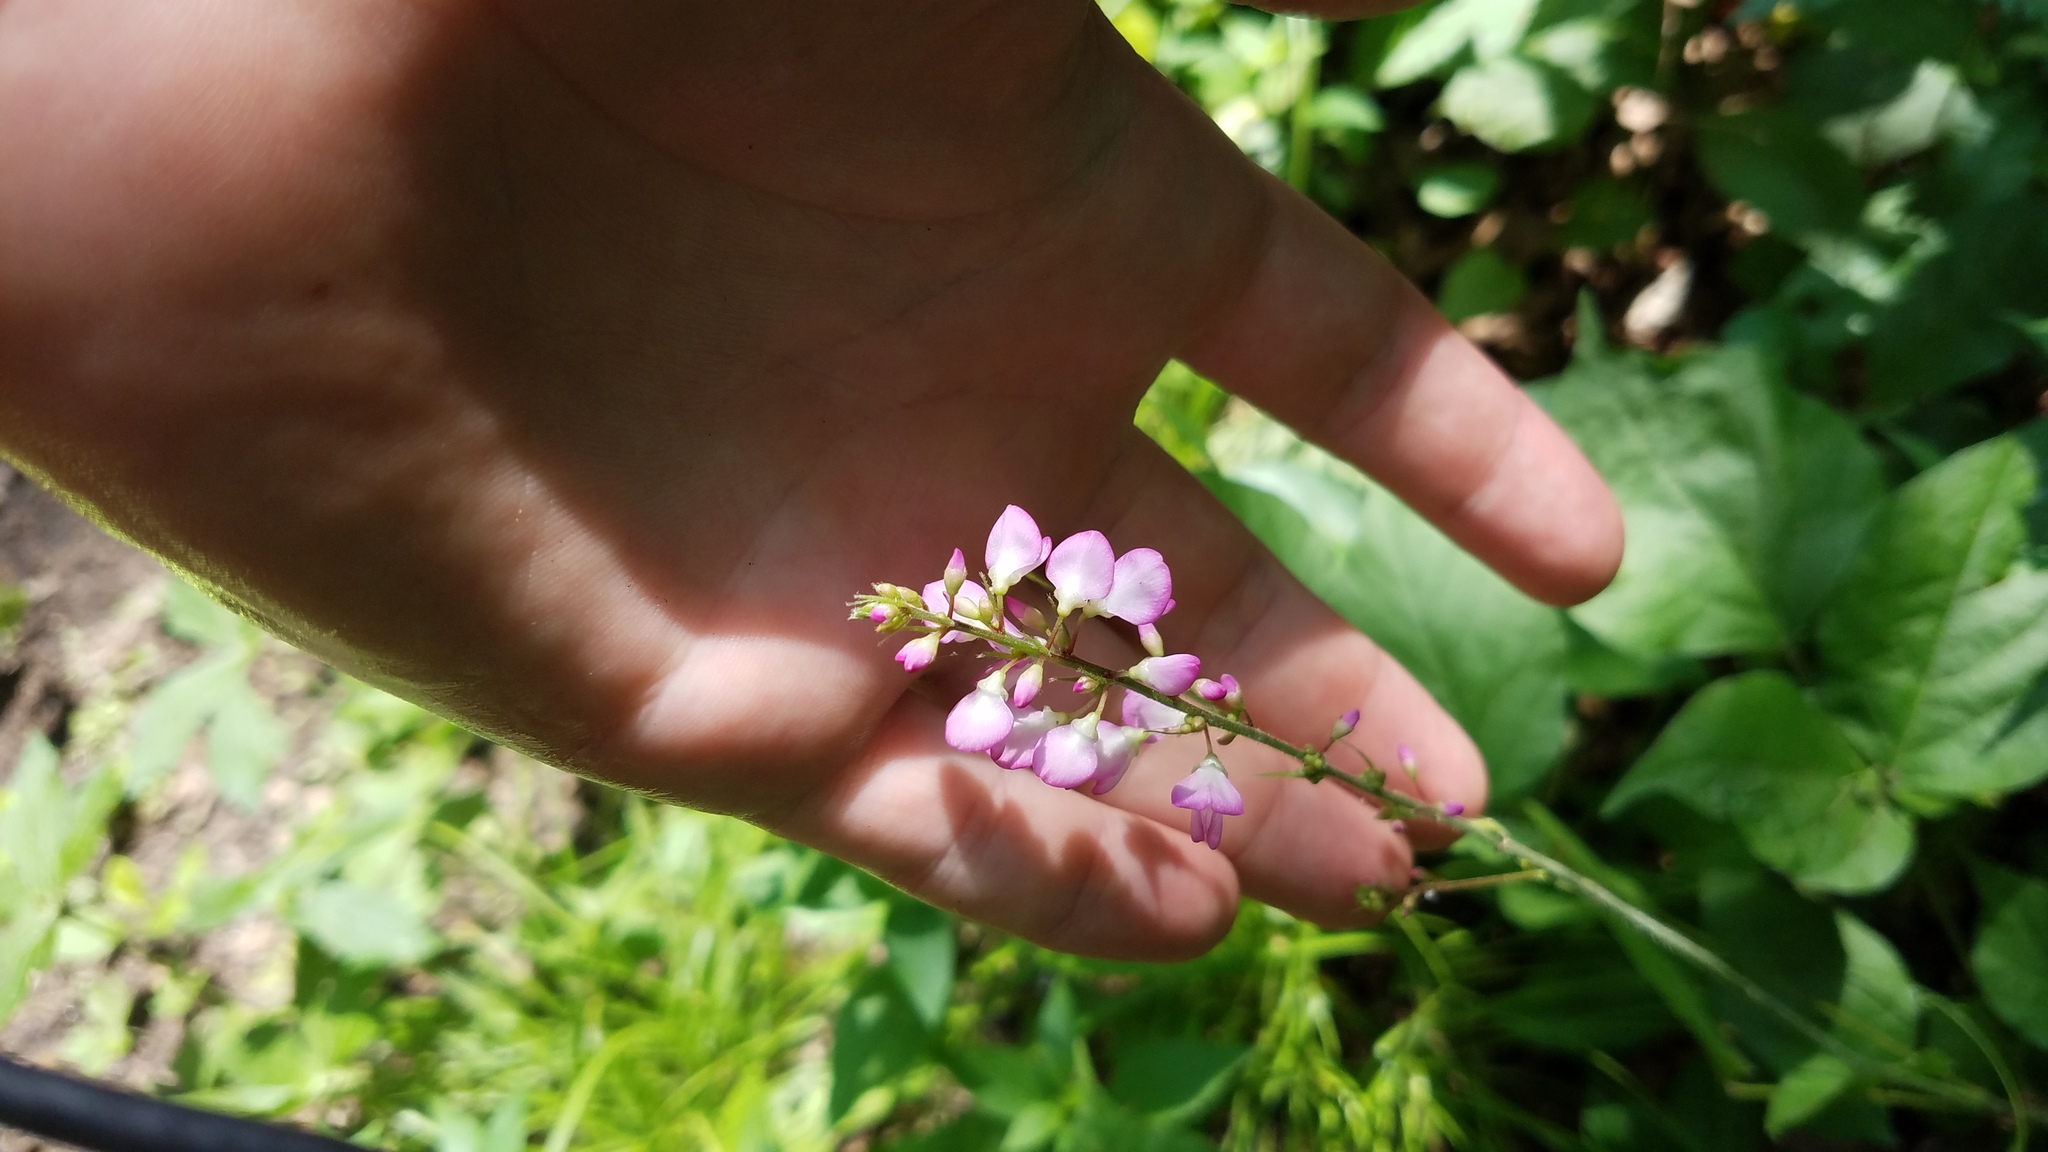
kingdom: Plantae
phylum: Tracheophyta
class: Magnoliopsida
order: Fabales
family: Fabaceae
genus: Hylodesmum
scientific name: Hylodesmum glutinosum
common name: Clustered-leaved tick-trefoil
